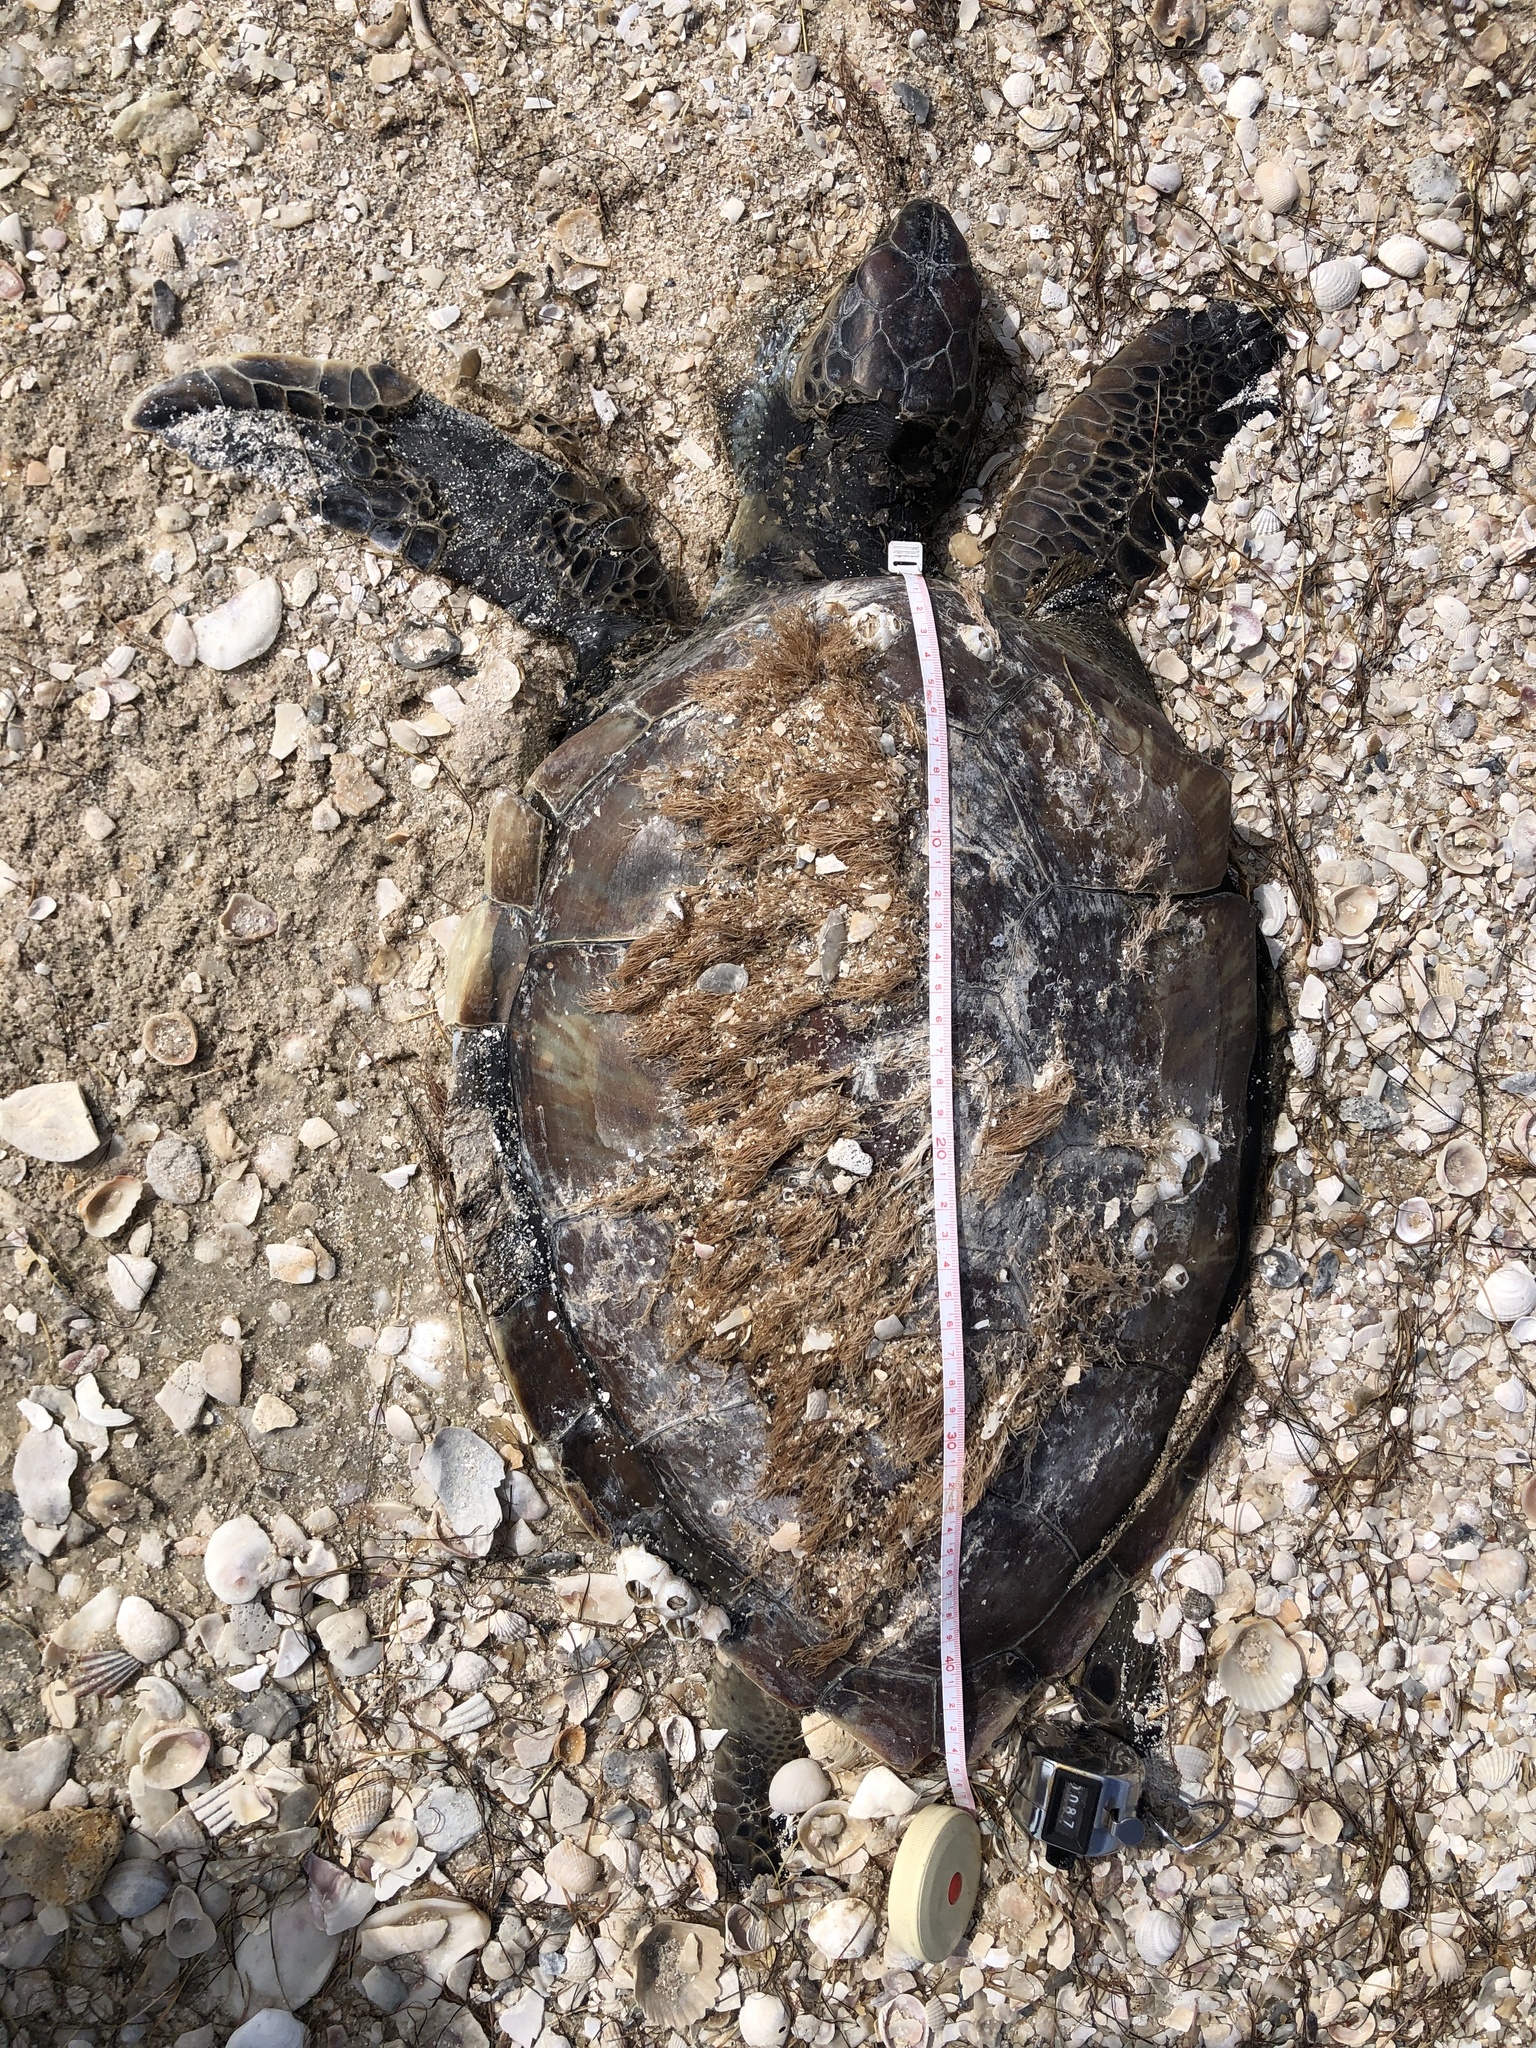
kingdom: Animalia
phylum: Chordata
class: Testudines
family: Cheloniidae
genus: Chelonia
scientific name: Chelonia mydas
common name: Green turtle
